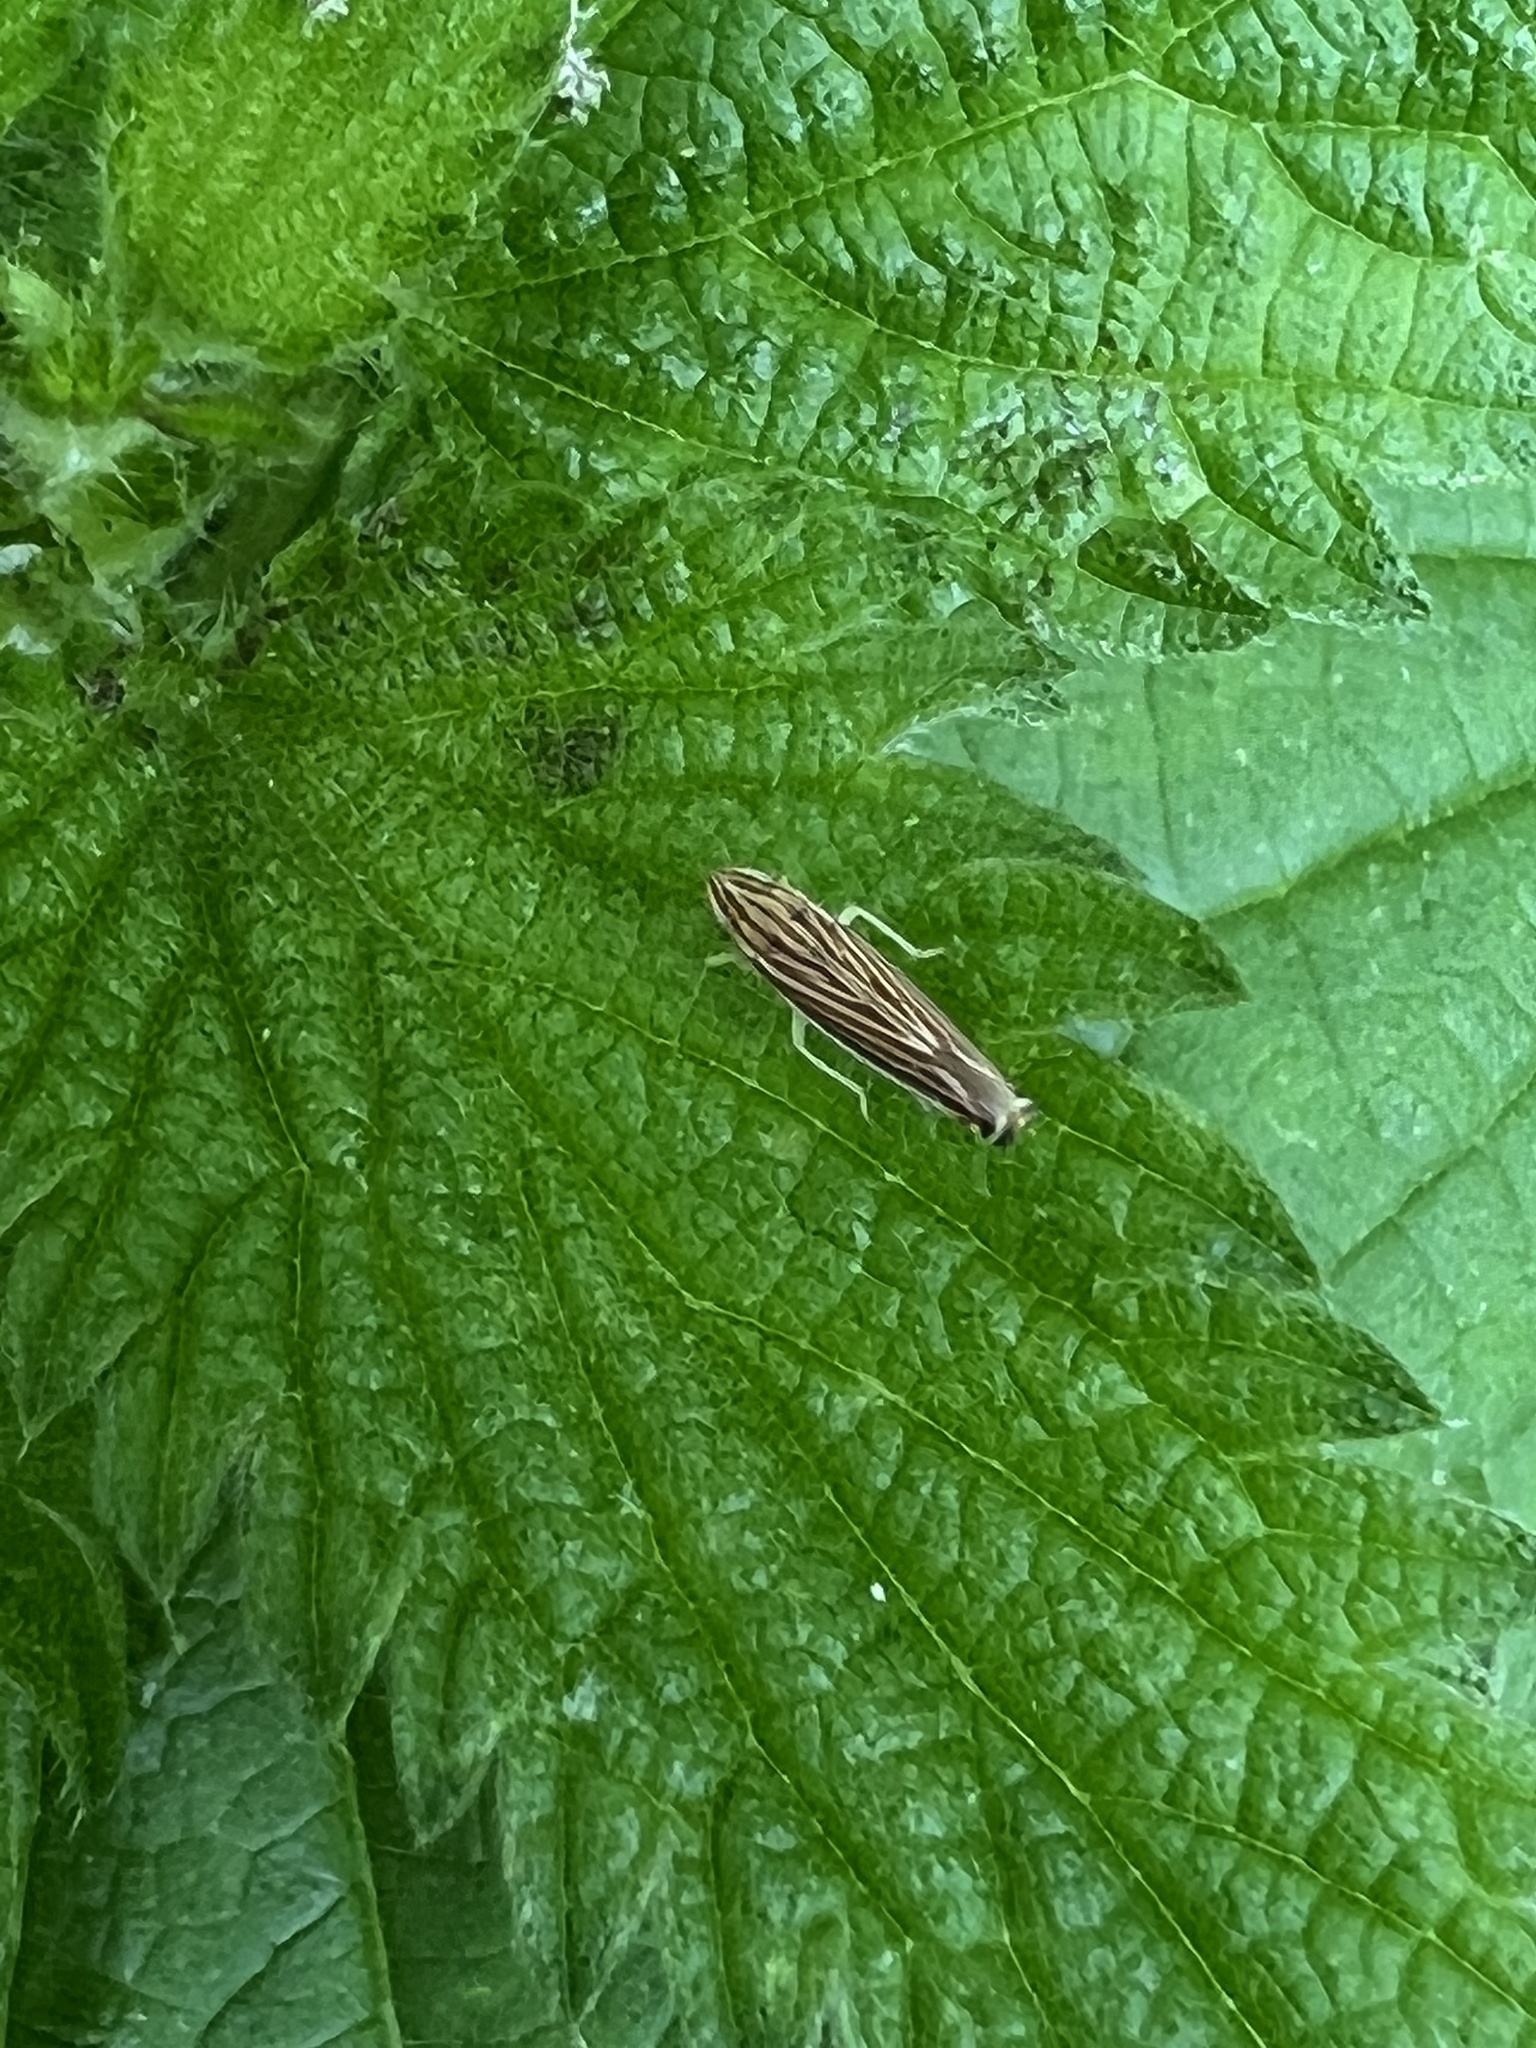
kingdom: Animalia
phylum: Arthropoda
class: Insecta
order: Hemiptera
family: Cicadellidae
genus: Sibovia
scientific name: Sibovia occatoria
